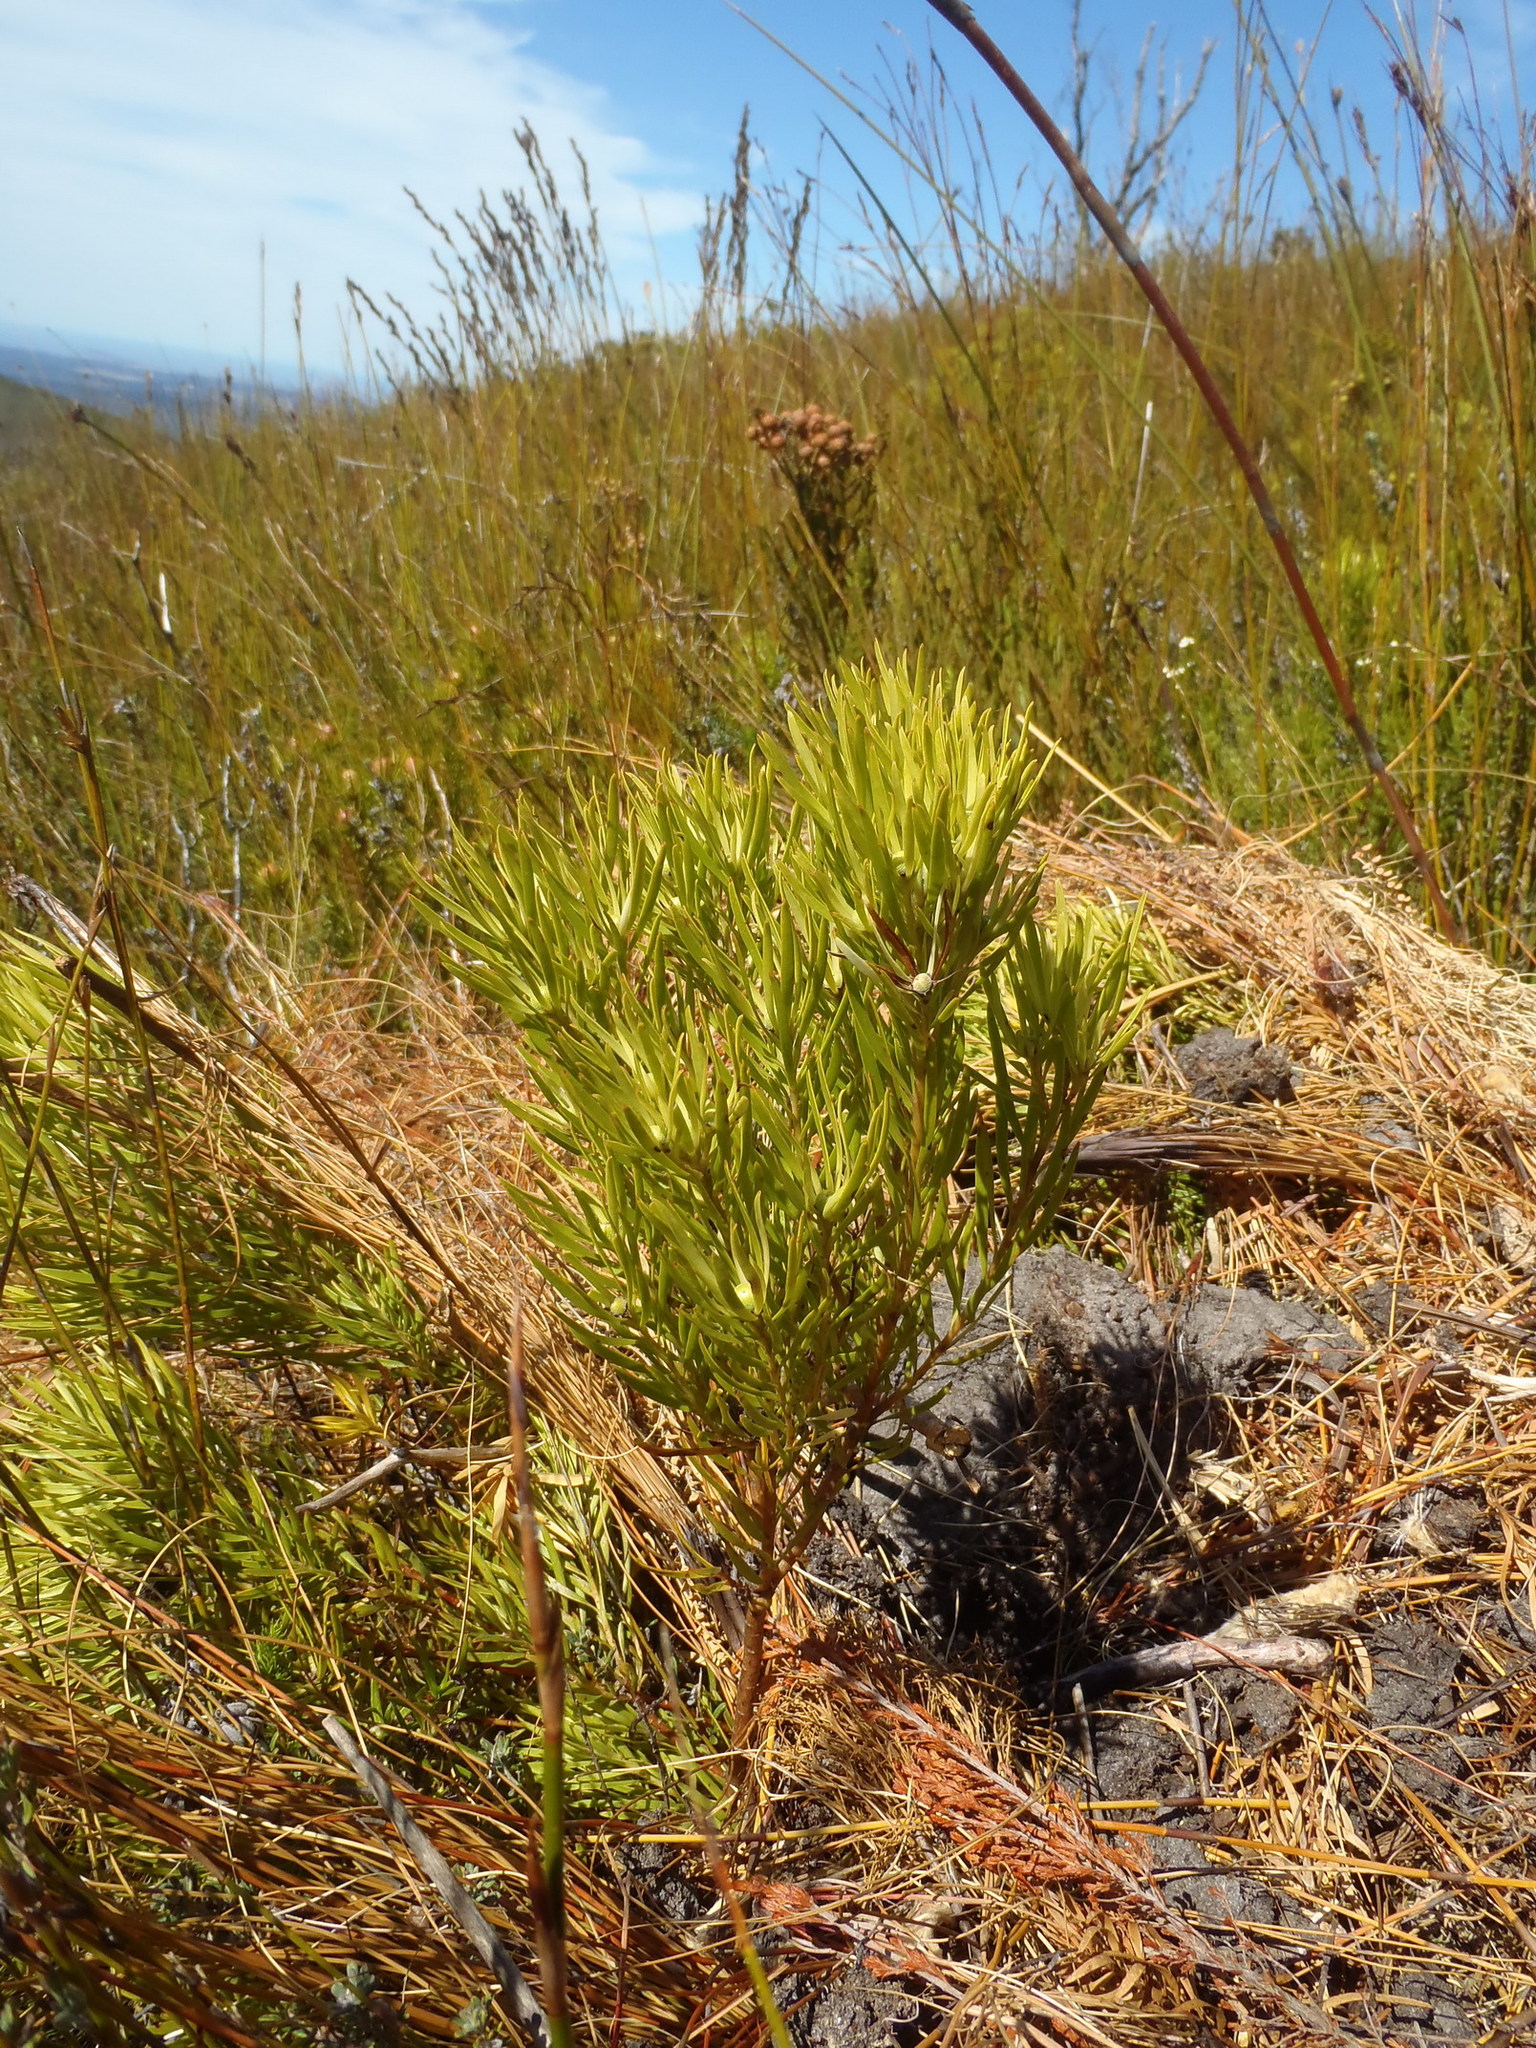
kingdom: Plantae
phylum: Tracheophyta
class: Magnoliopsida
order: Proteales
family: Proteaceae
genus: Leucadendron
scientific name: Leucadendron spissifolium
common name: Spear-leaf conebush
